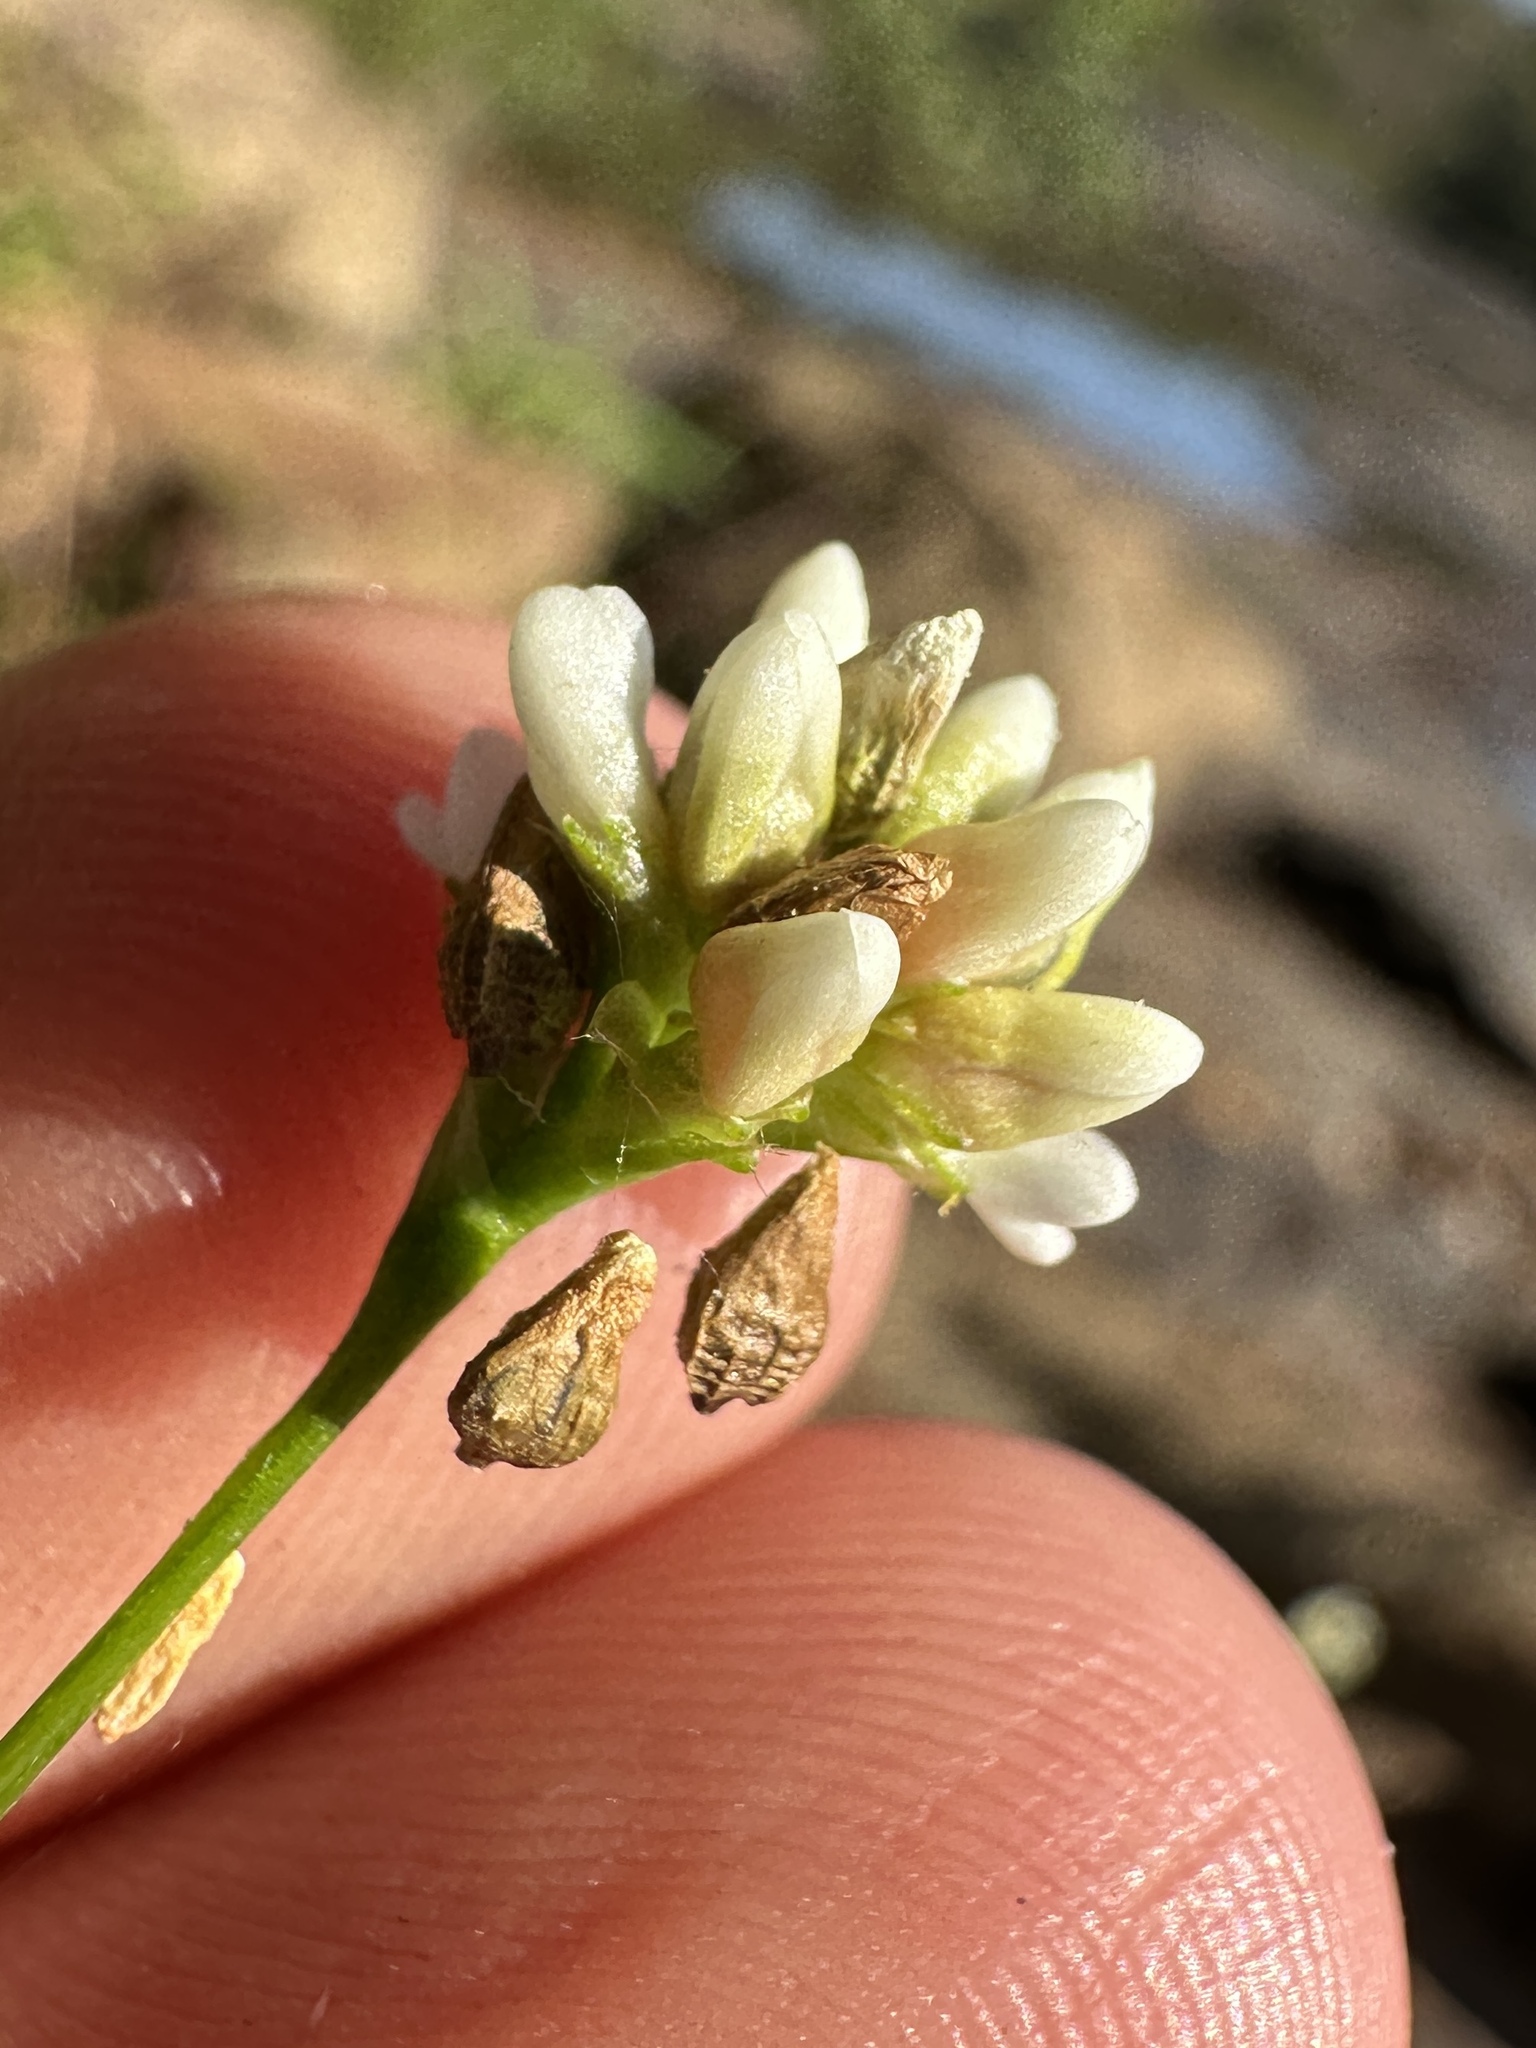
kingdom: Plantae
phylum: Tracheophyta
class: Magnoliopsida
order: Caryophyllales
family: Polygonaceae
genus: Persicaria
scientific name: Persicaria sagittata
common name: American tearthumb
